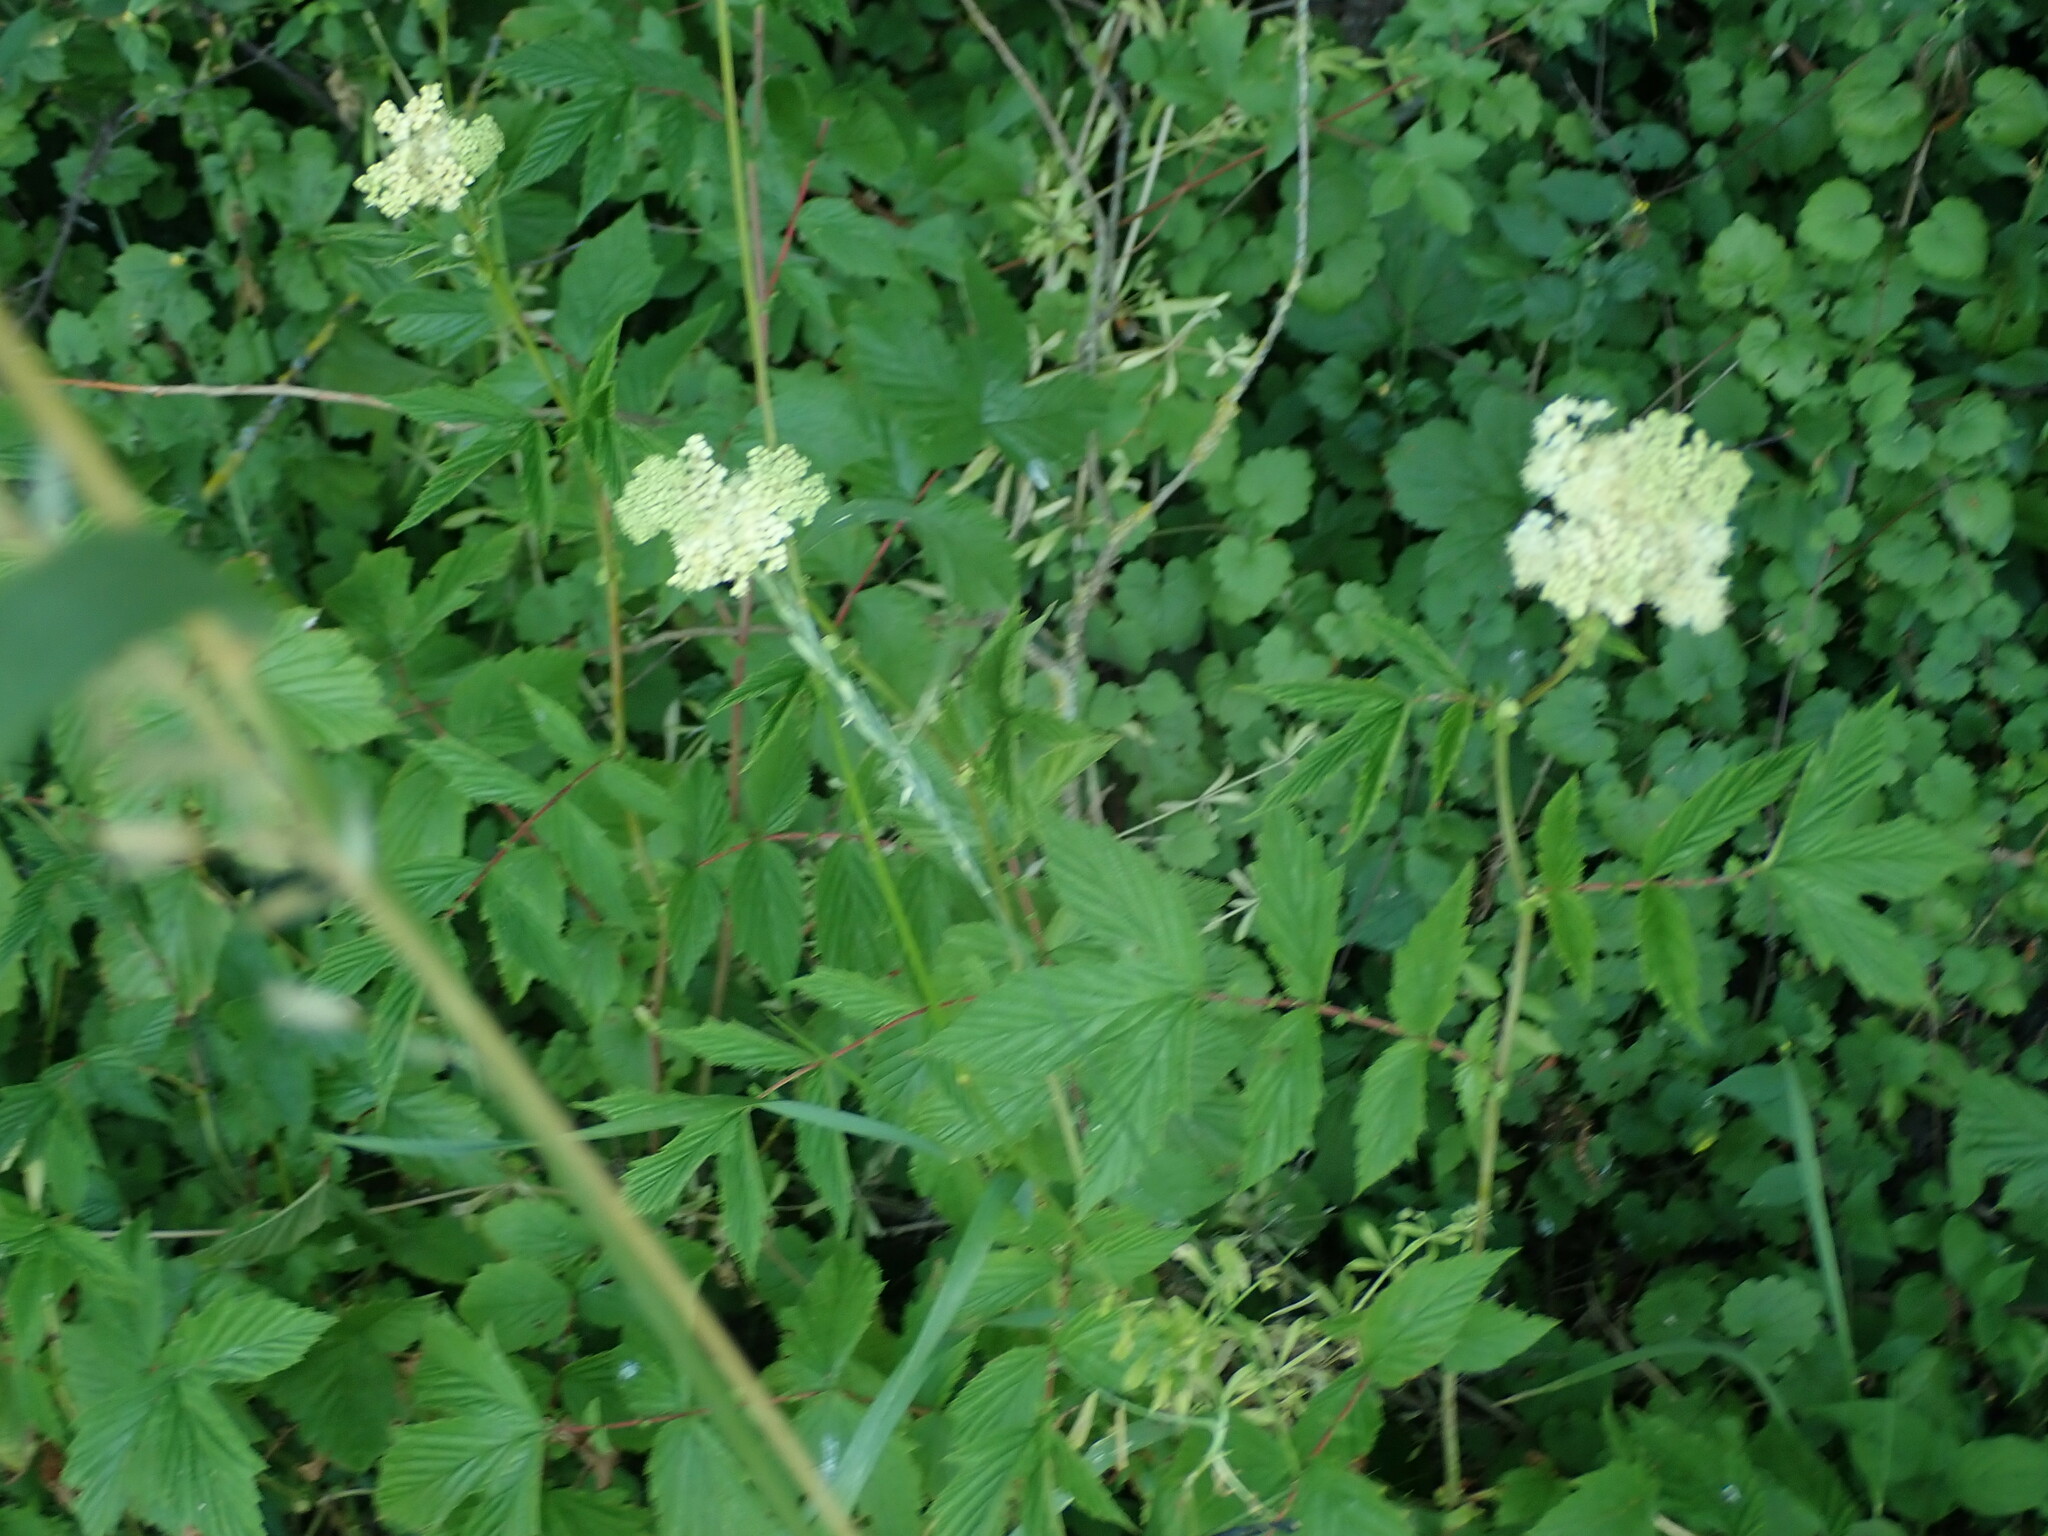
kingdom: Plantae
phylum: Tracheophyta
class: Magnoliopsida
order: Rosales
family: Rosaceae
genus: Filipendula
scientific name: Filipendula ulmaria
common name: Meadowsweet
